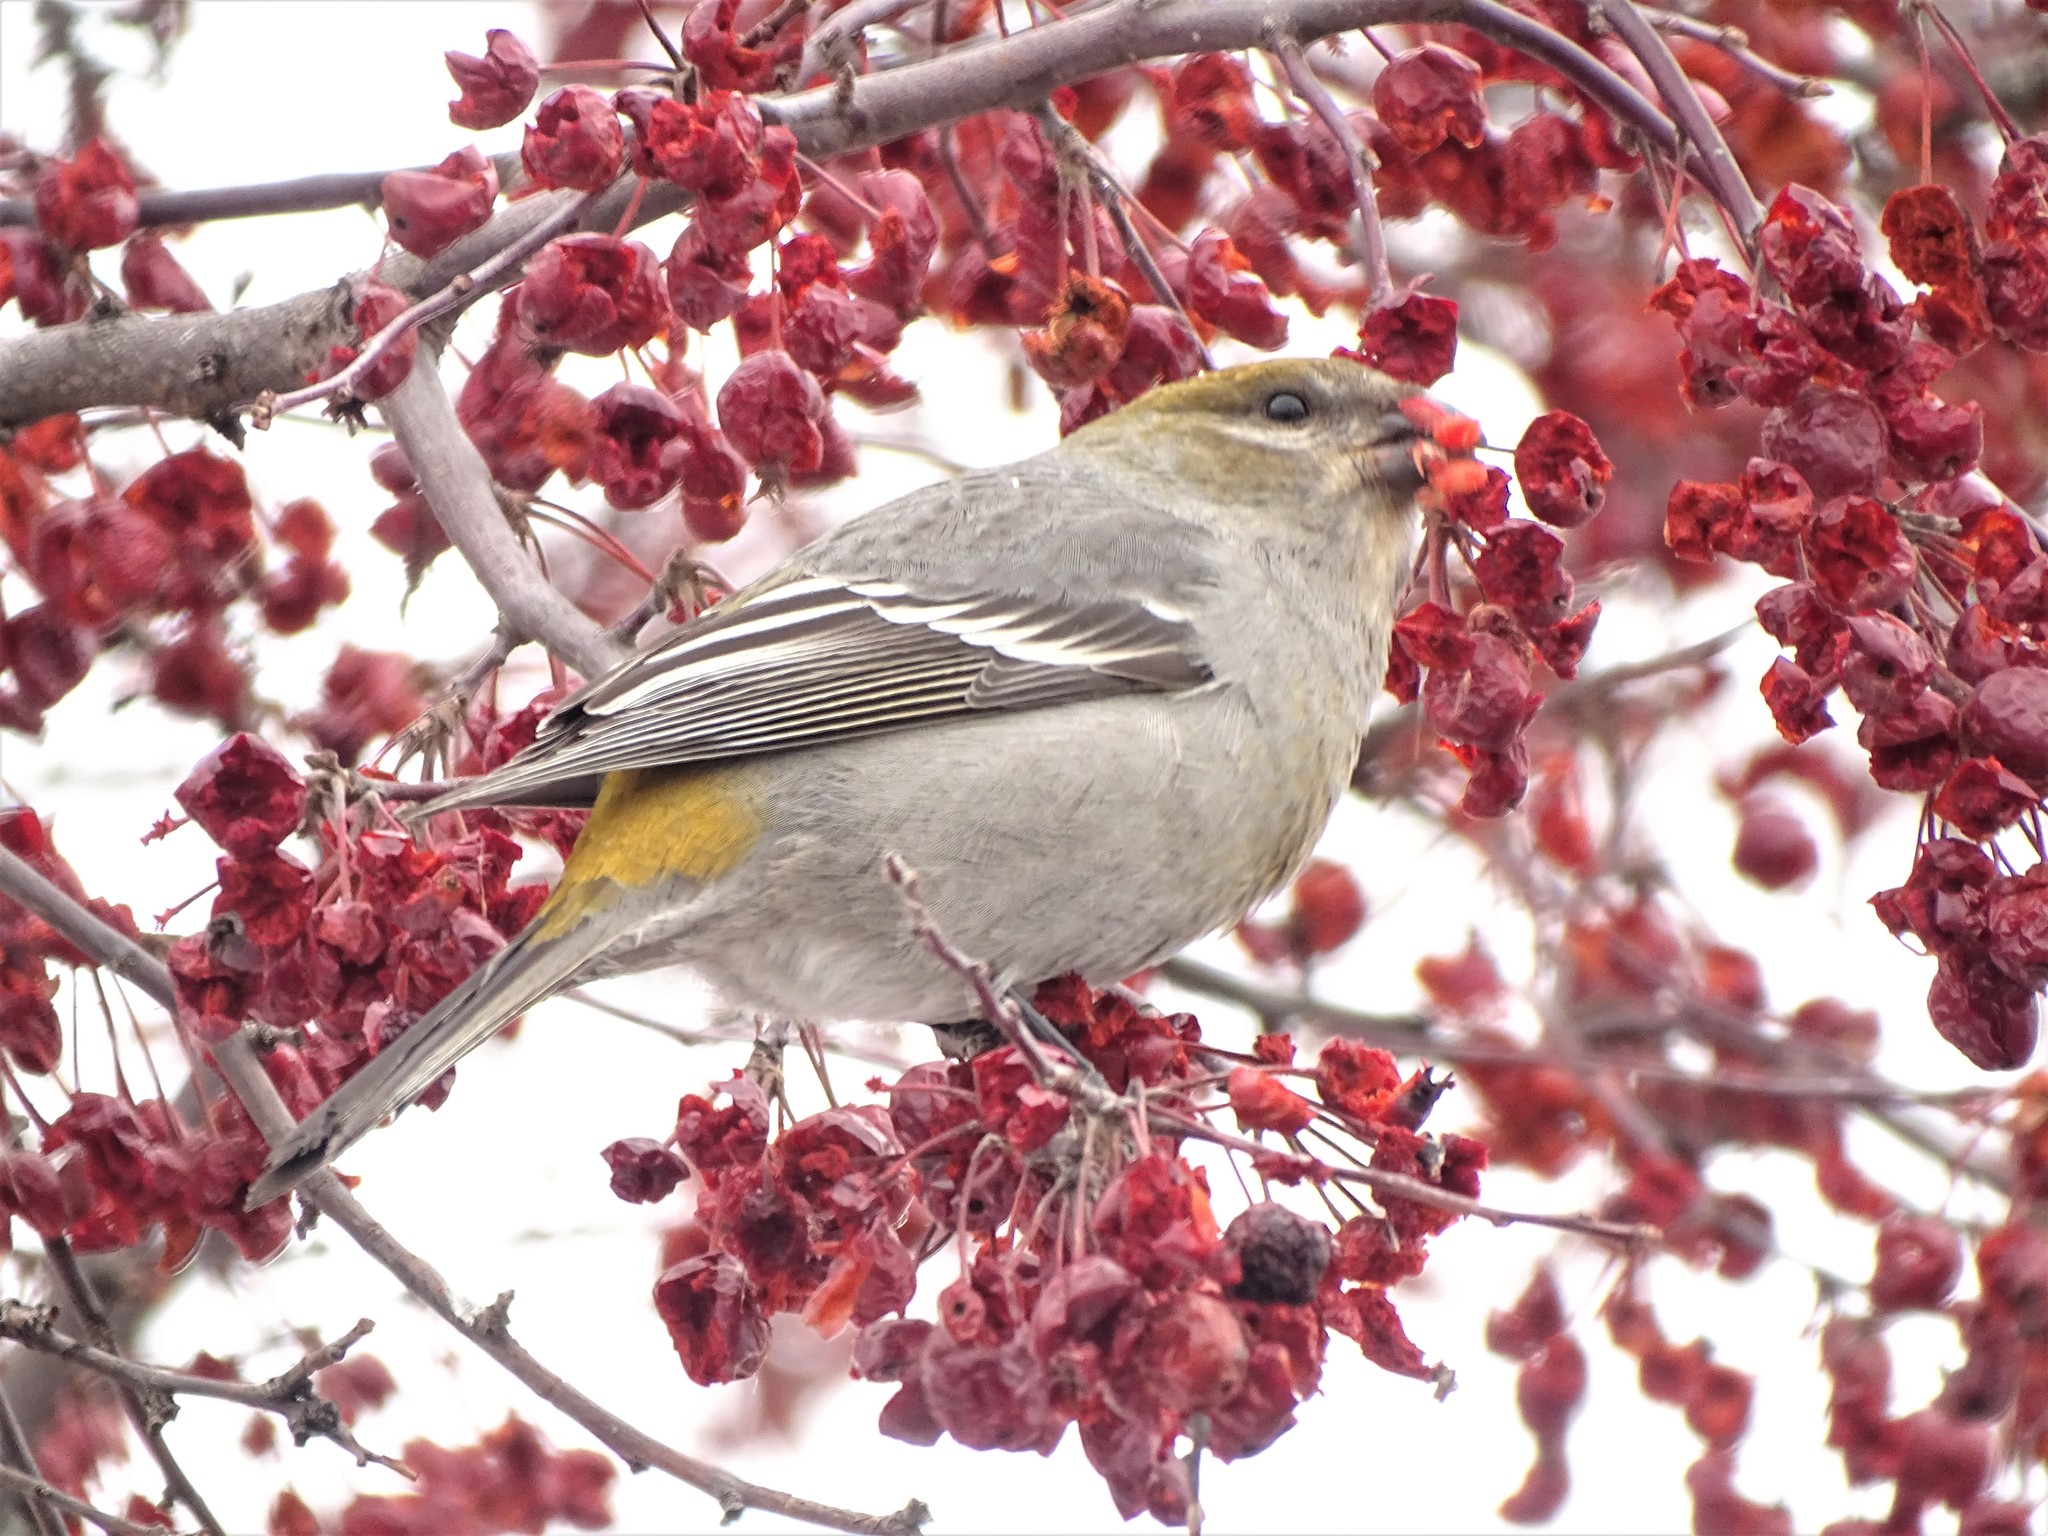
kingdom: Animalia
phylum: Chordata
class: Aves
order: Passeriformes
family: Fringillidae
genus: Pinicola
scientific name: Pinicola enucleator
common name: Pine grosbeak
